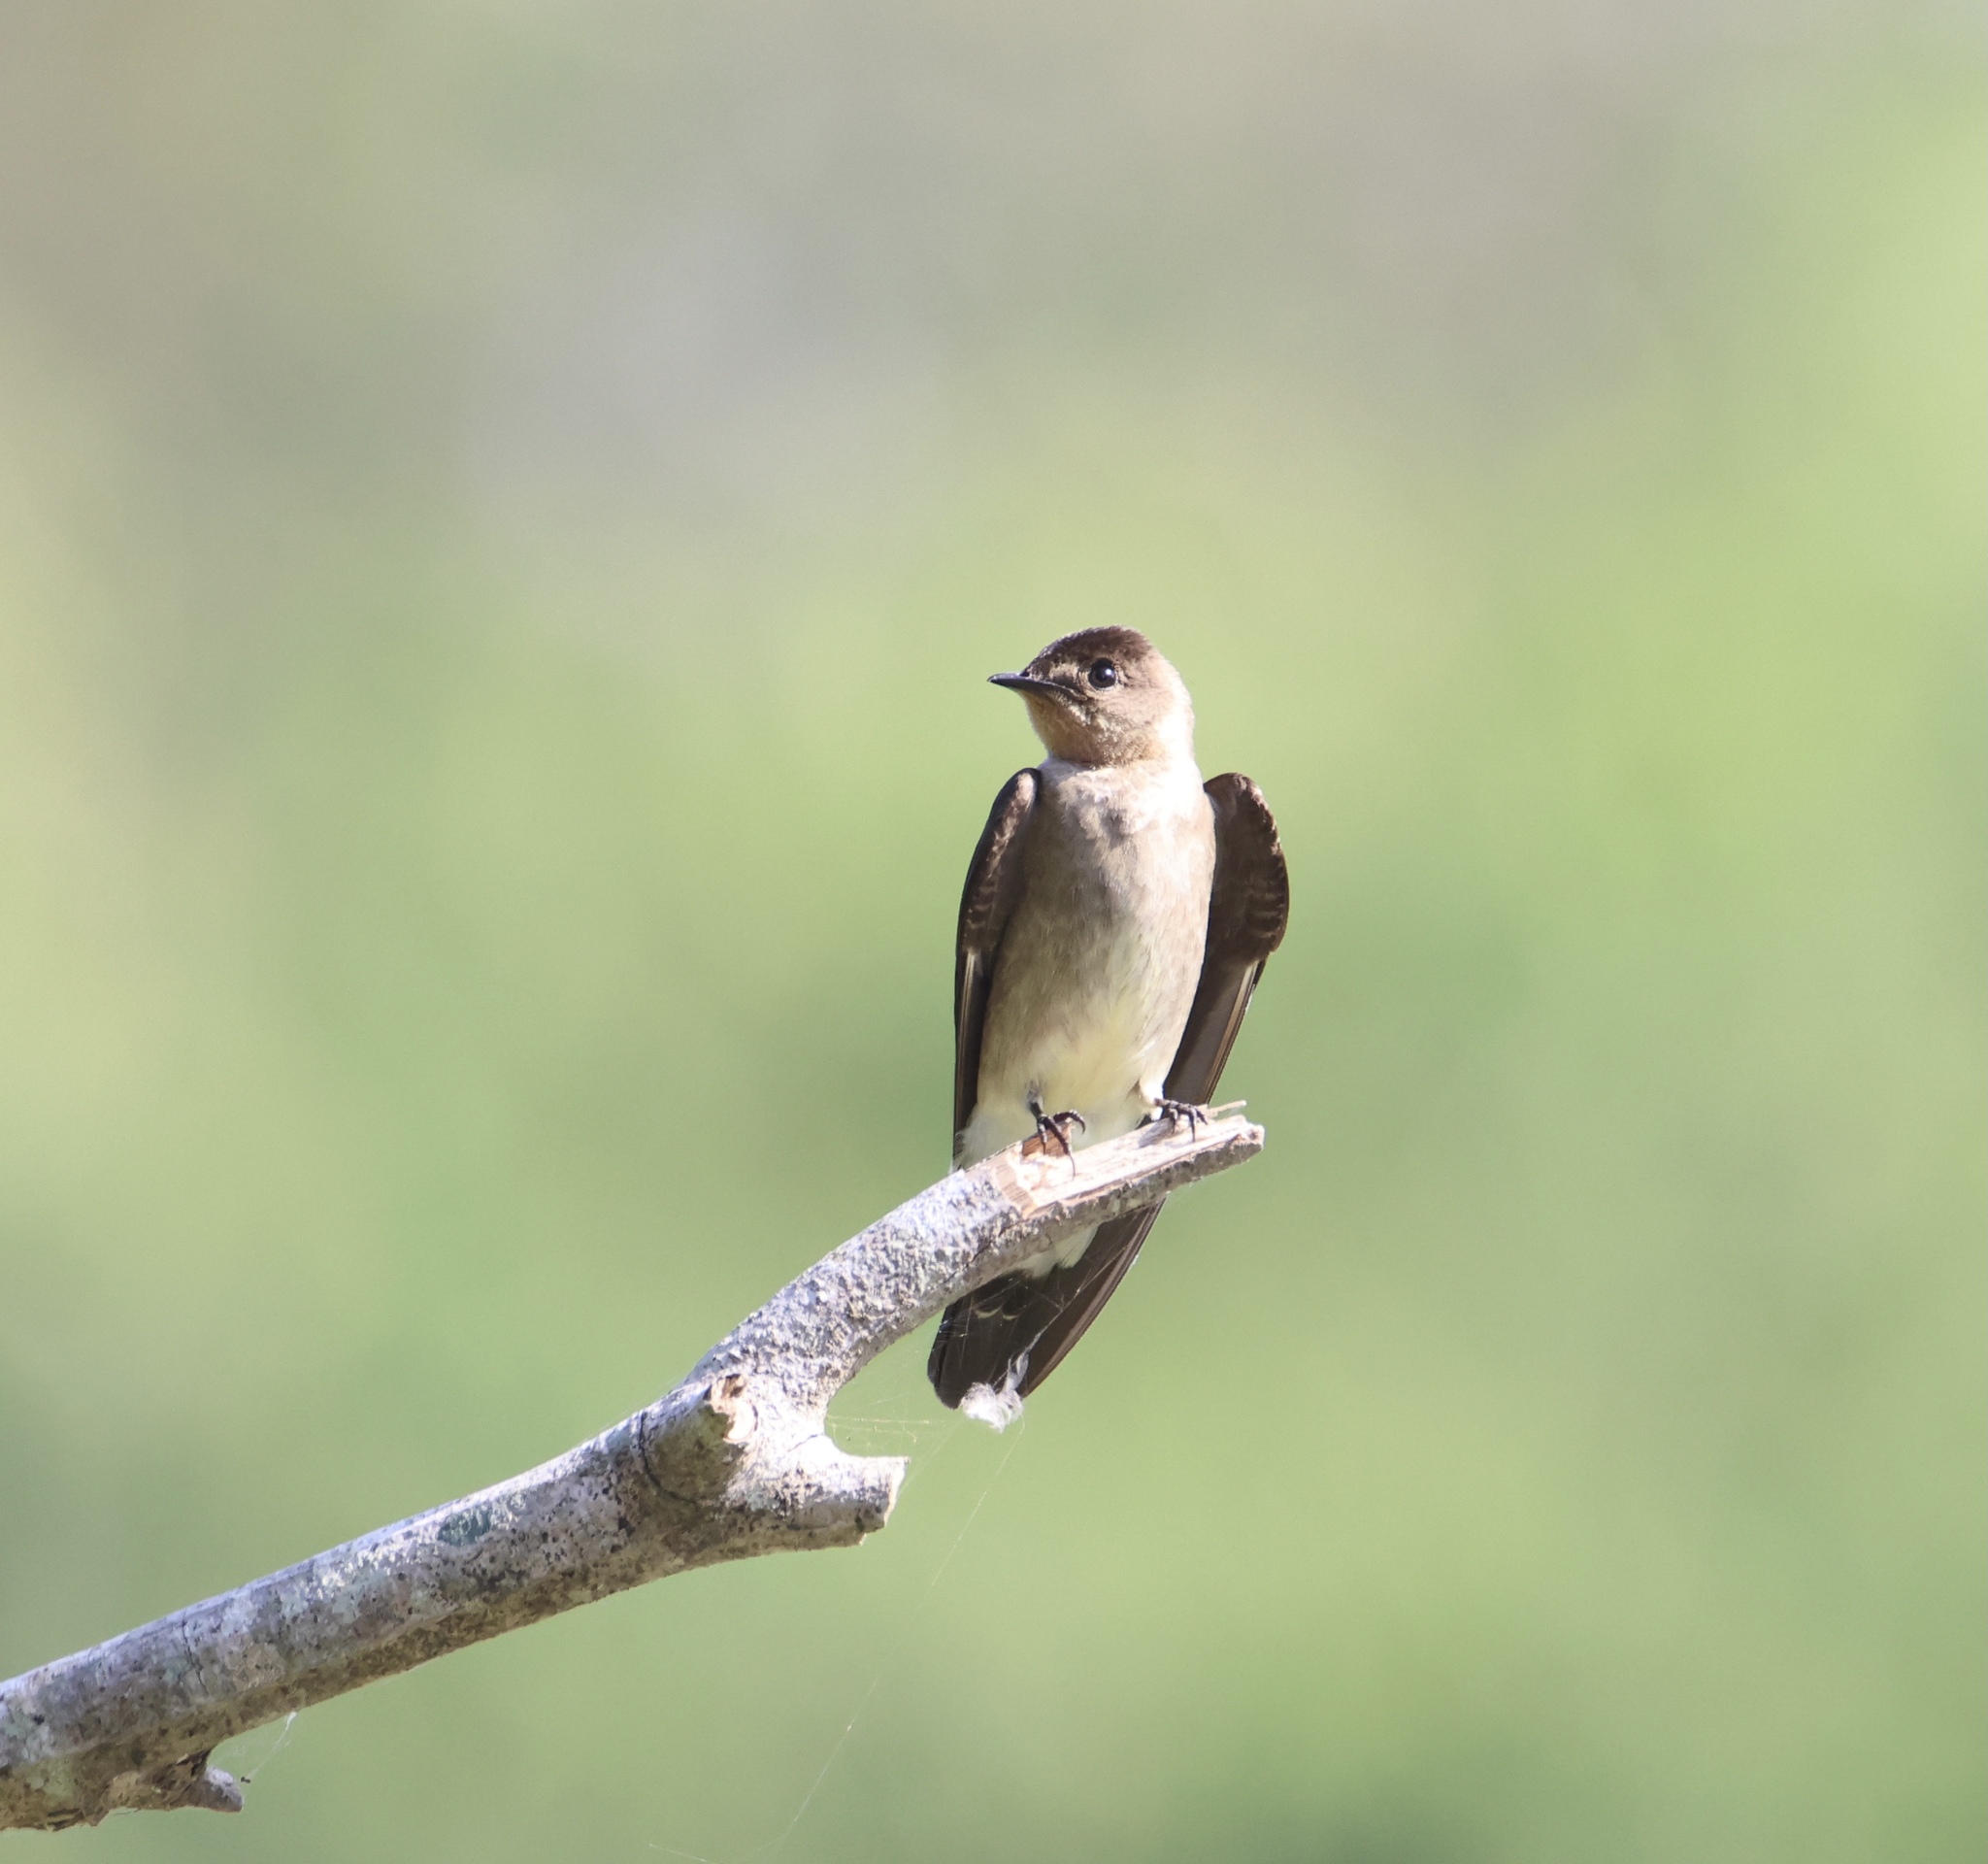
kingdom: Animalia
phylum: Chordata
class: Aves
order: Passeriformes
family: Hirundinidae
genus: Stelgidopteryx
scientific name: Stelgidopteryx ruficollis
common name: Southern rough-winged swallow
